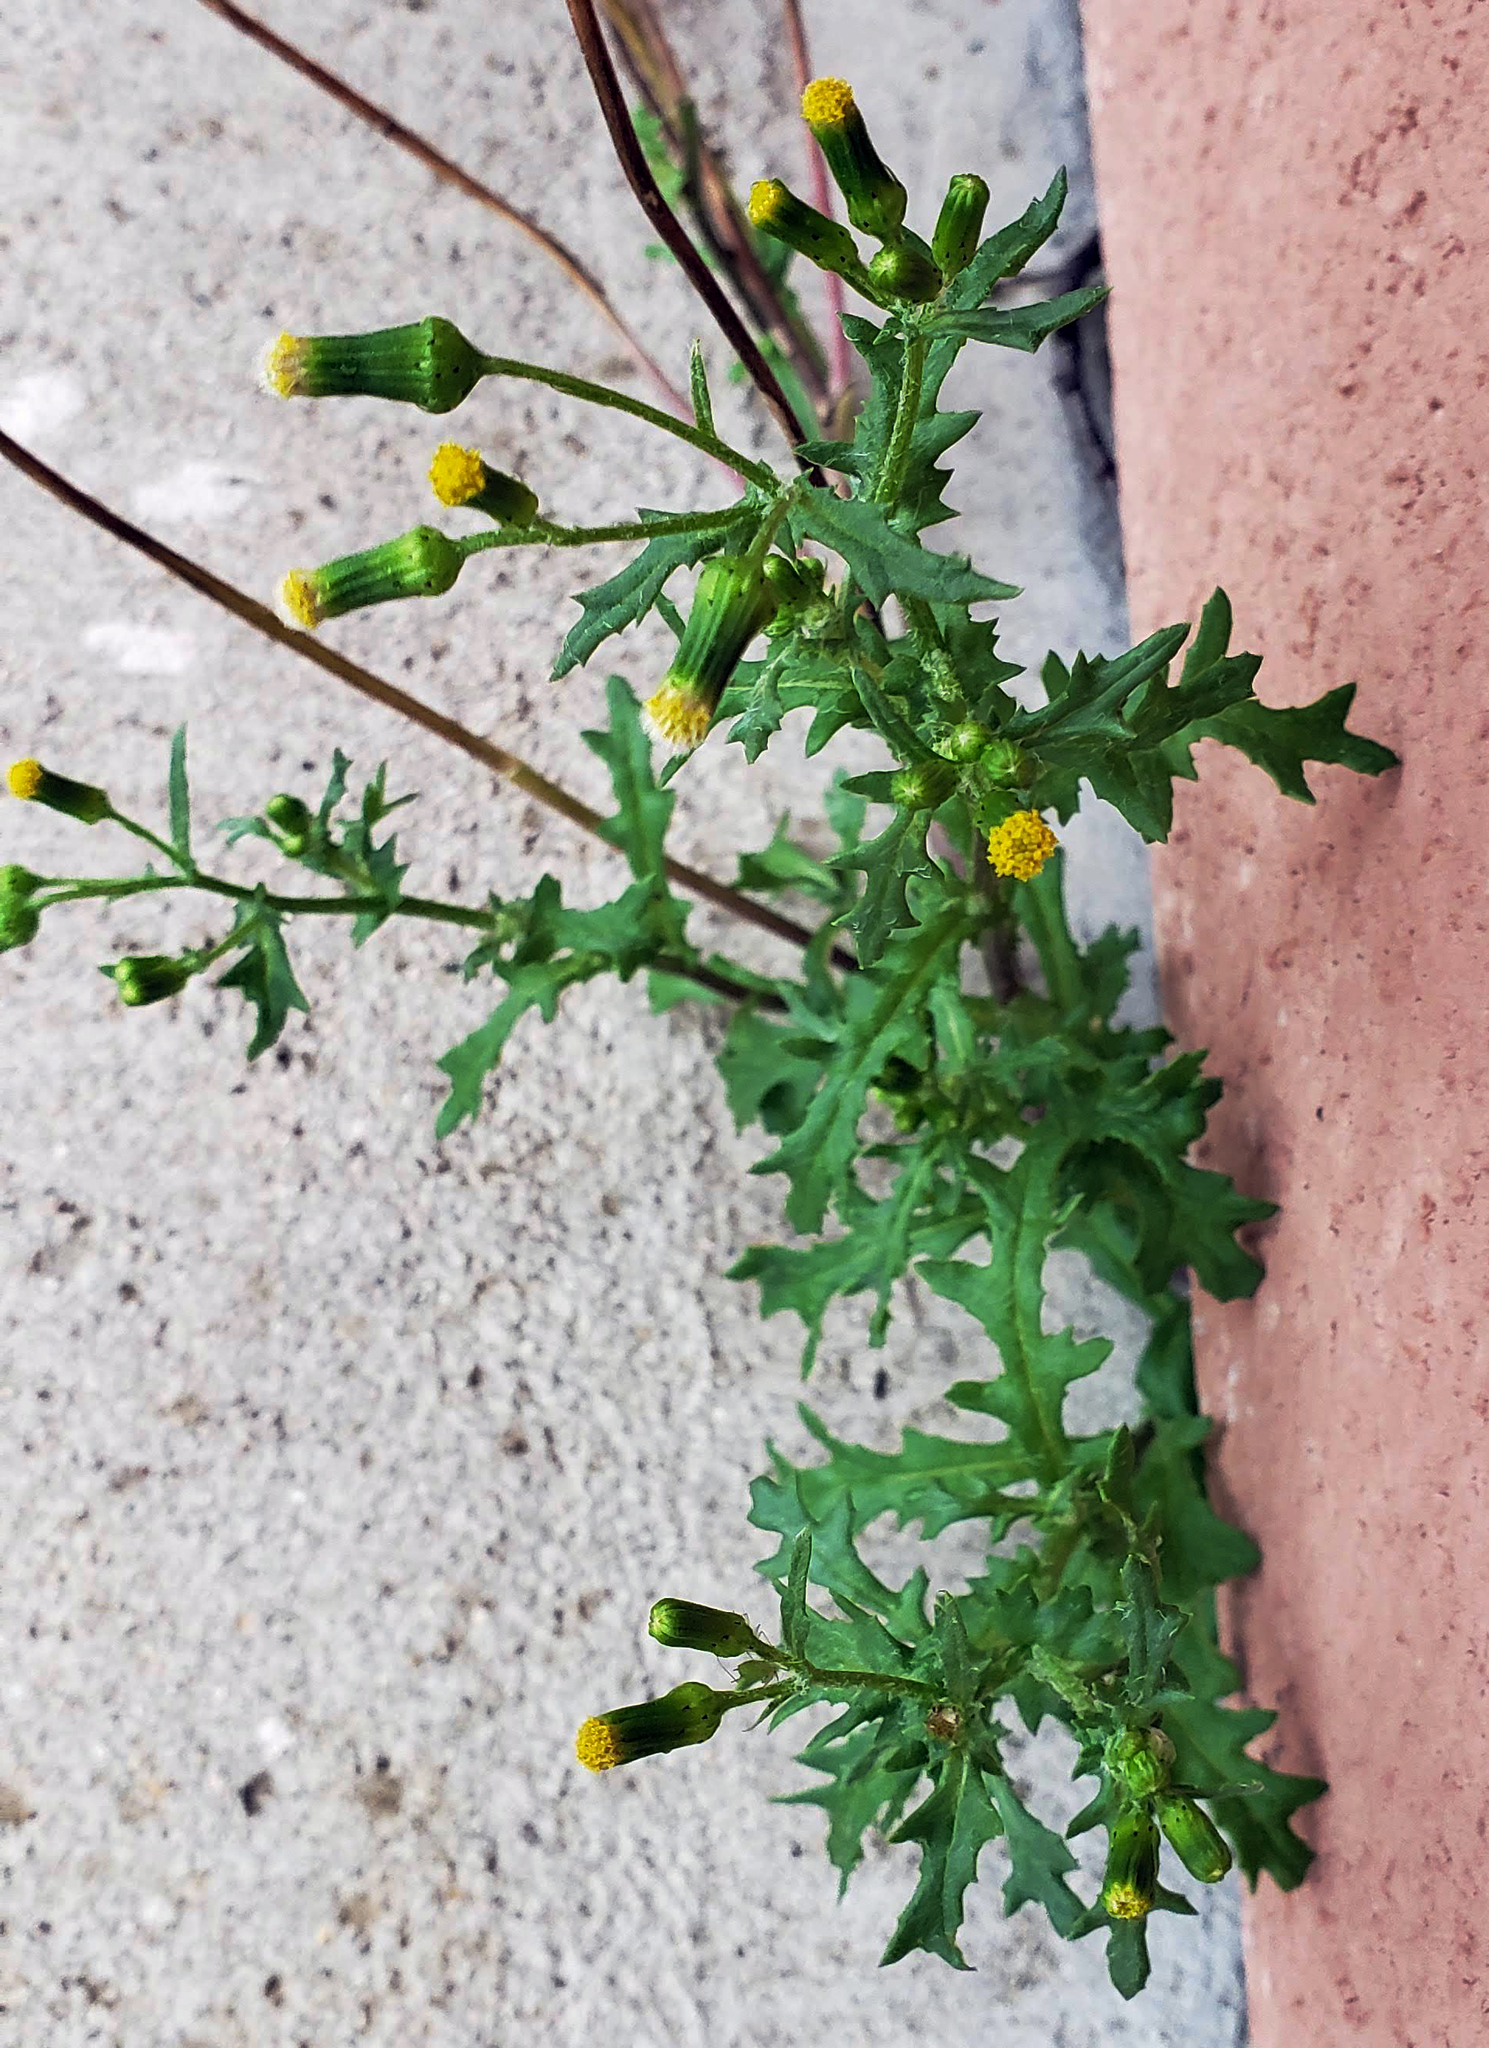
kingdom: Plantae
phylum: Tracheophyta
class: Magnoliopsida
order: Asterales
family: Asteraceae
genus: Senecio
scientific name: Senecio vulgaris
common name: Old-man-in-the-spring
